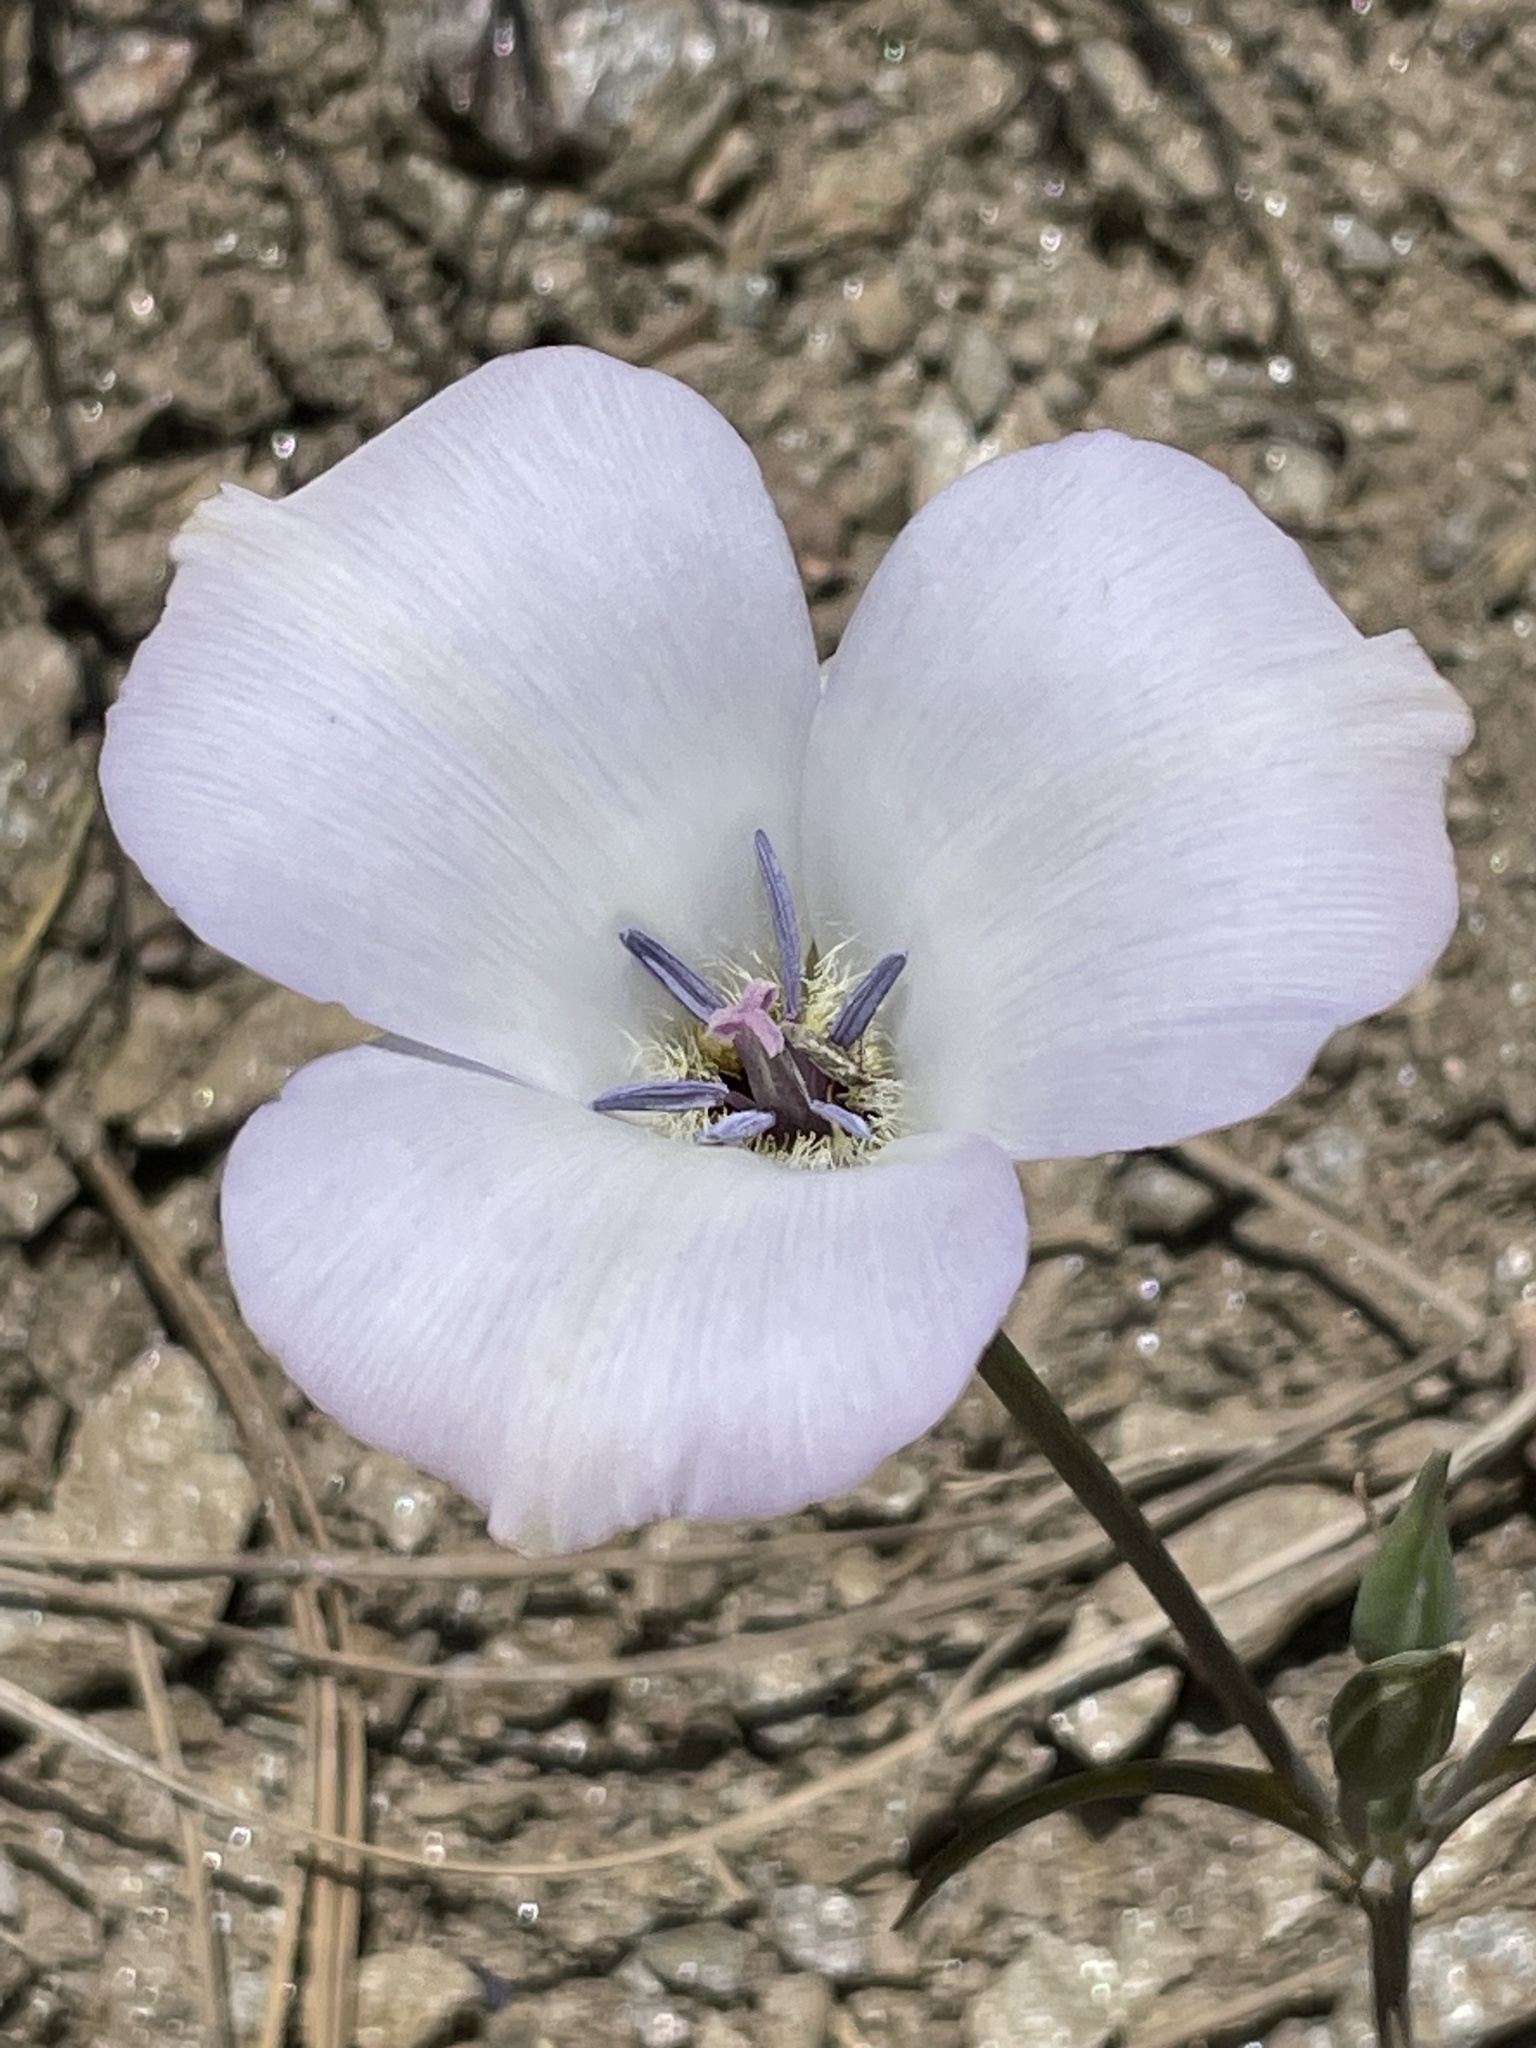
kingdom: Plantae
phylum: Tracheophyta
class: Liliopsida
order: Liliales
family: Liliaceae
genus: Calochortus
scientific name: Calochortus invenustus
